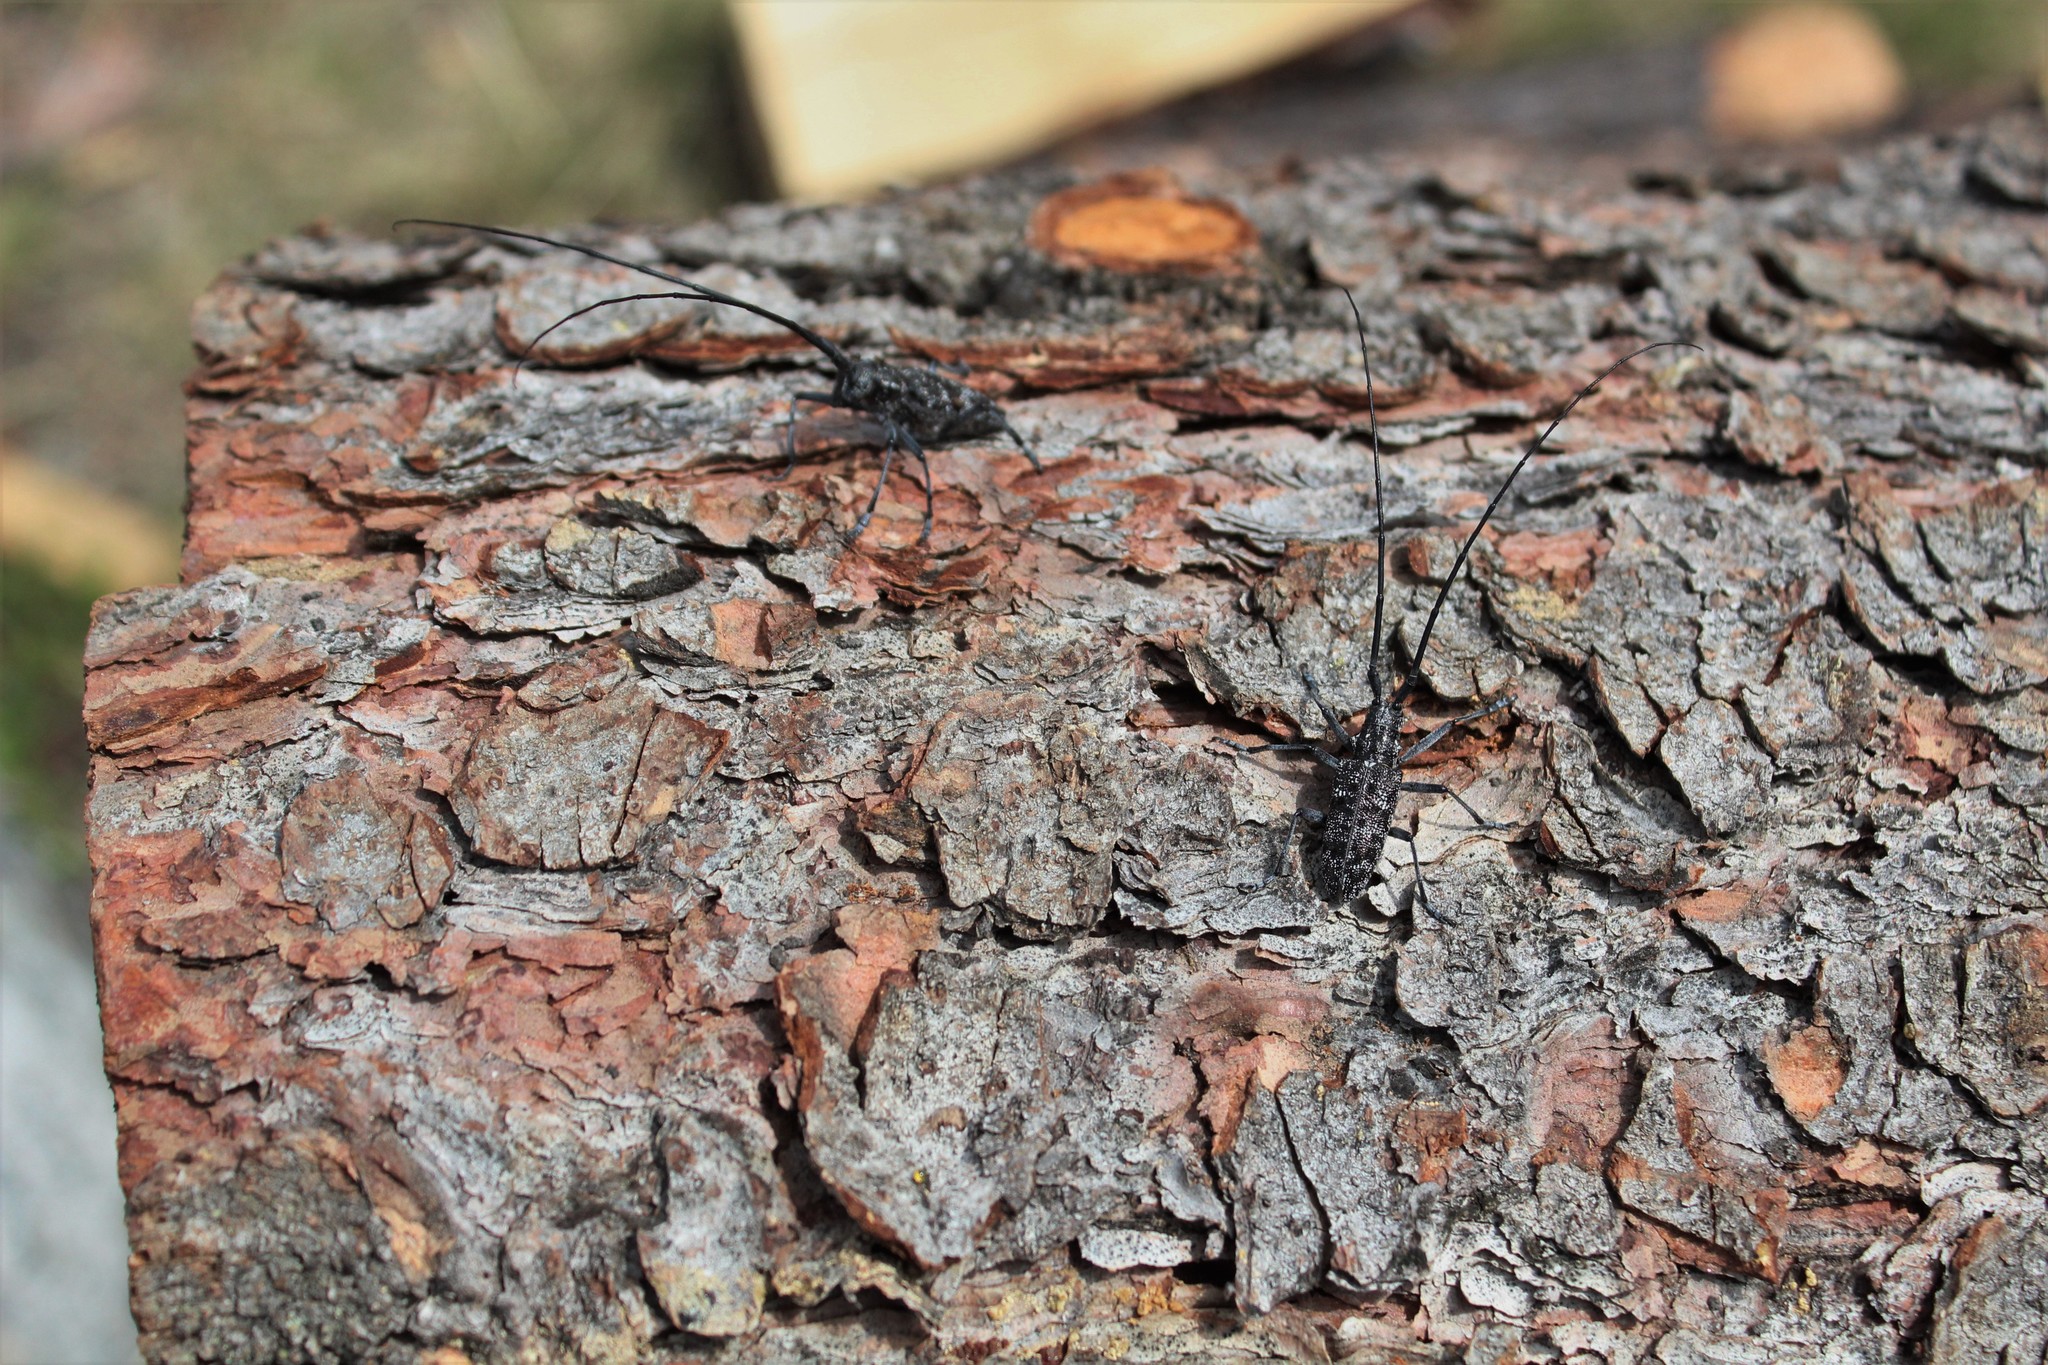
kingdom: Animalia
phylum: Arthropoda
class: Insecta
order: Coleoptera
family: Cerambycidae
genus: Monochamus
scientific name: Monochamus clamator
